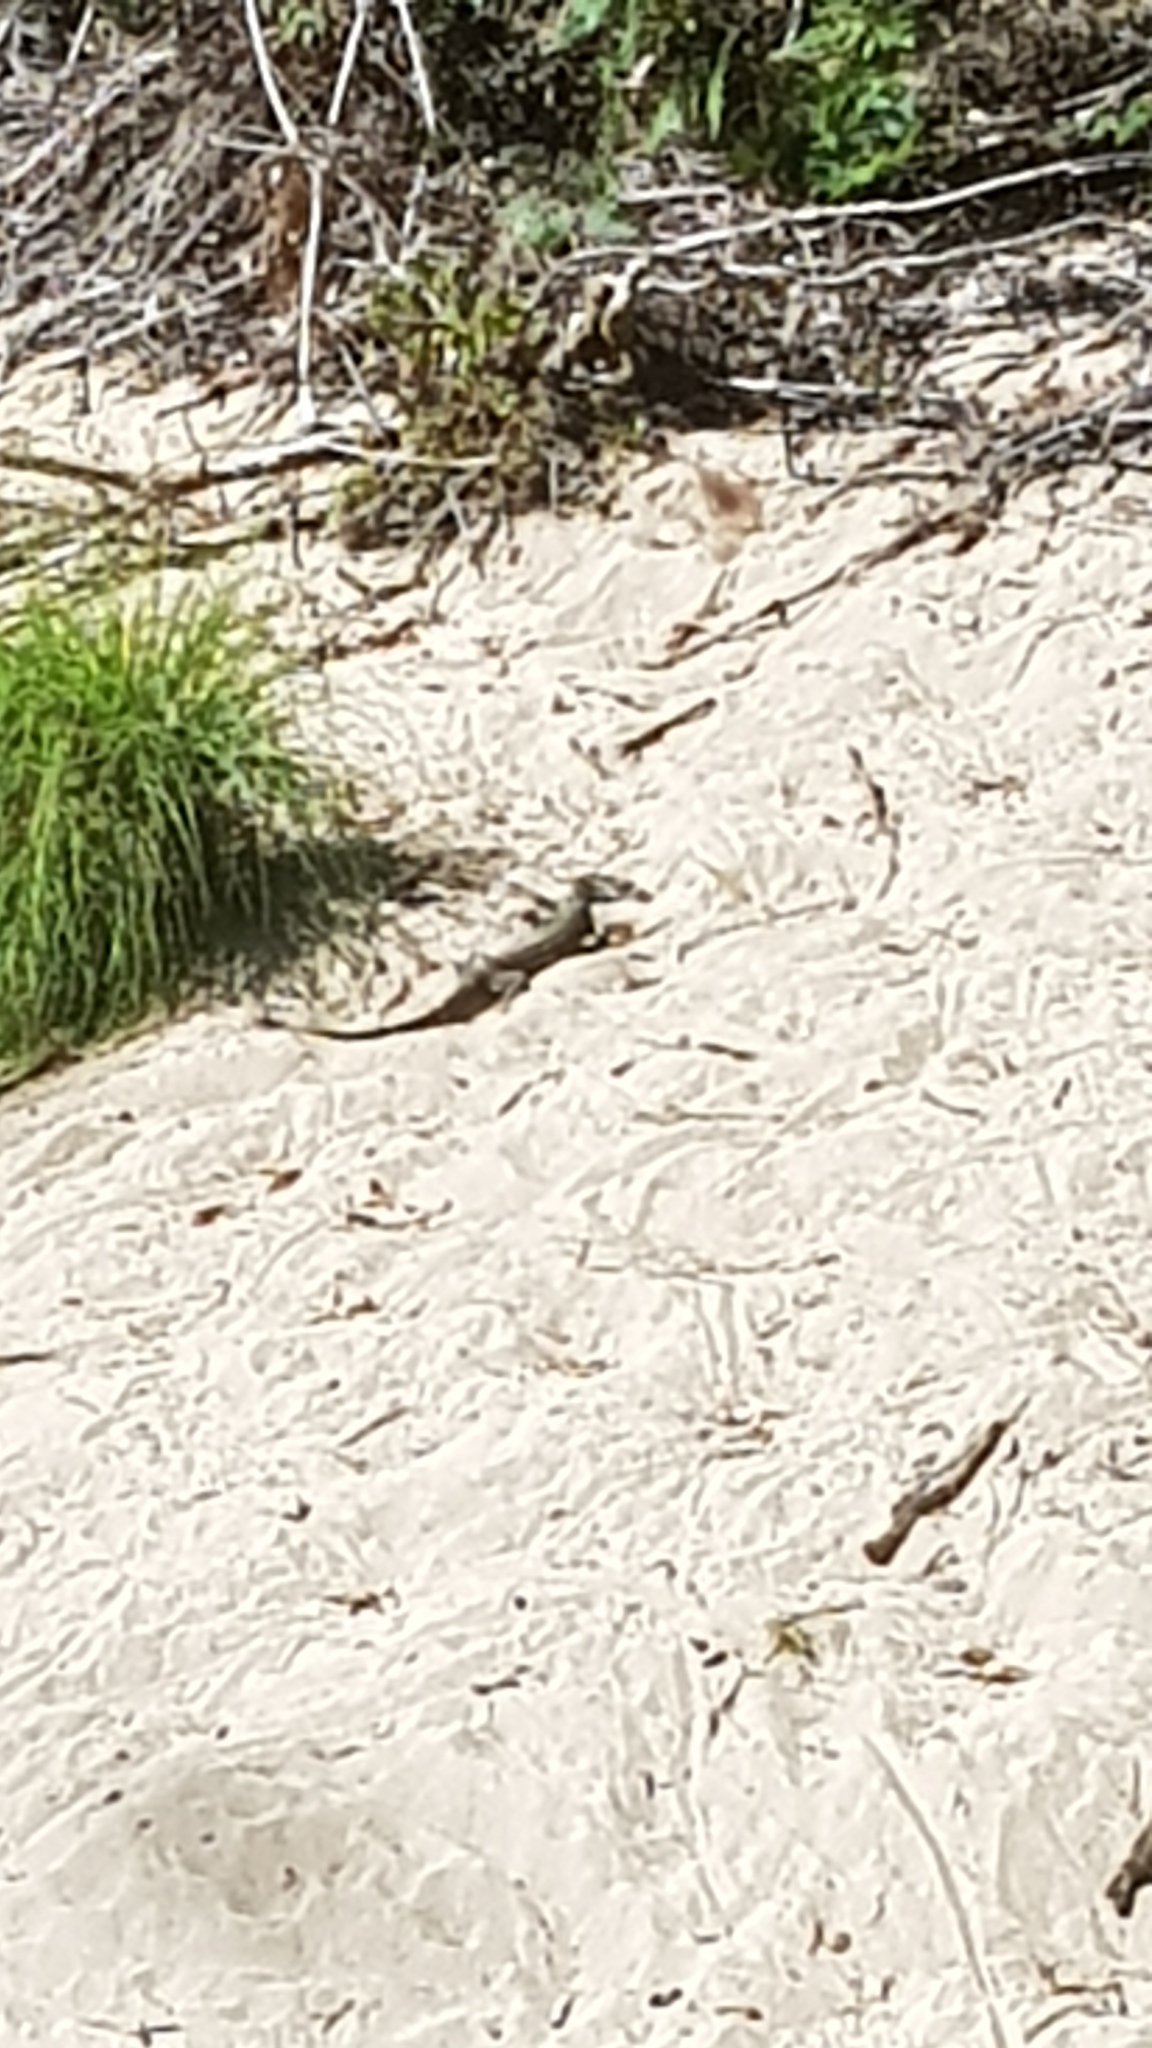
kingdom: Animalia
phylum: Chordata
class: Squamata
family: Varanidae
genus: Varanus
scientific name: Varanus varius
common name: Lace monitor
